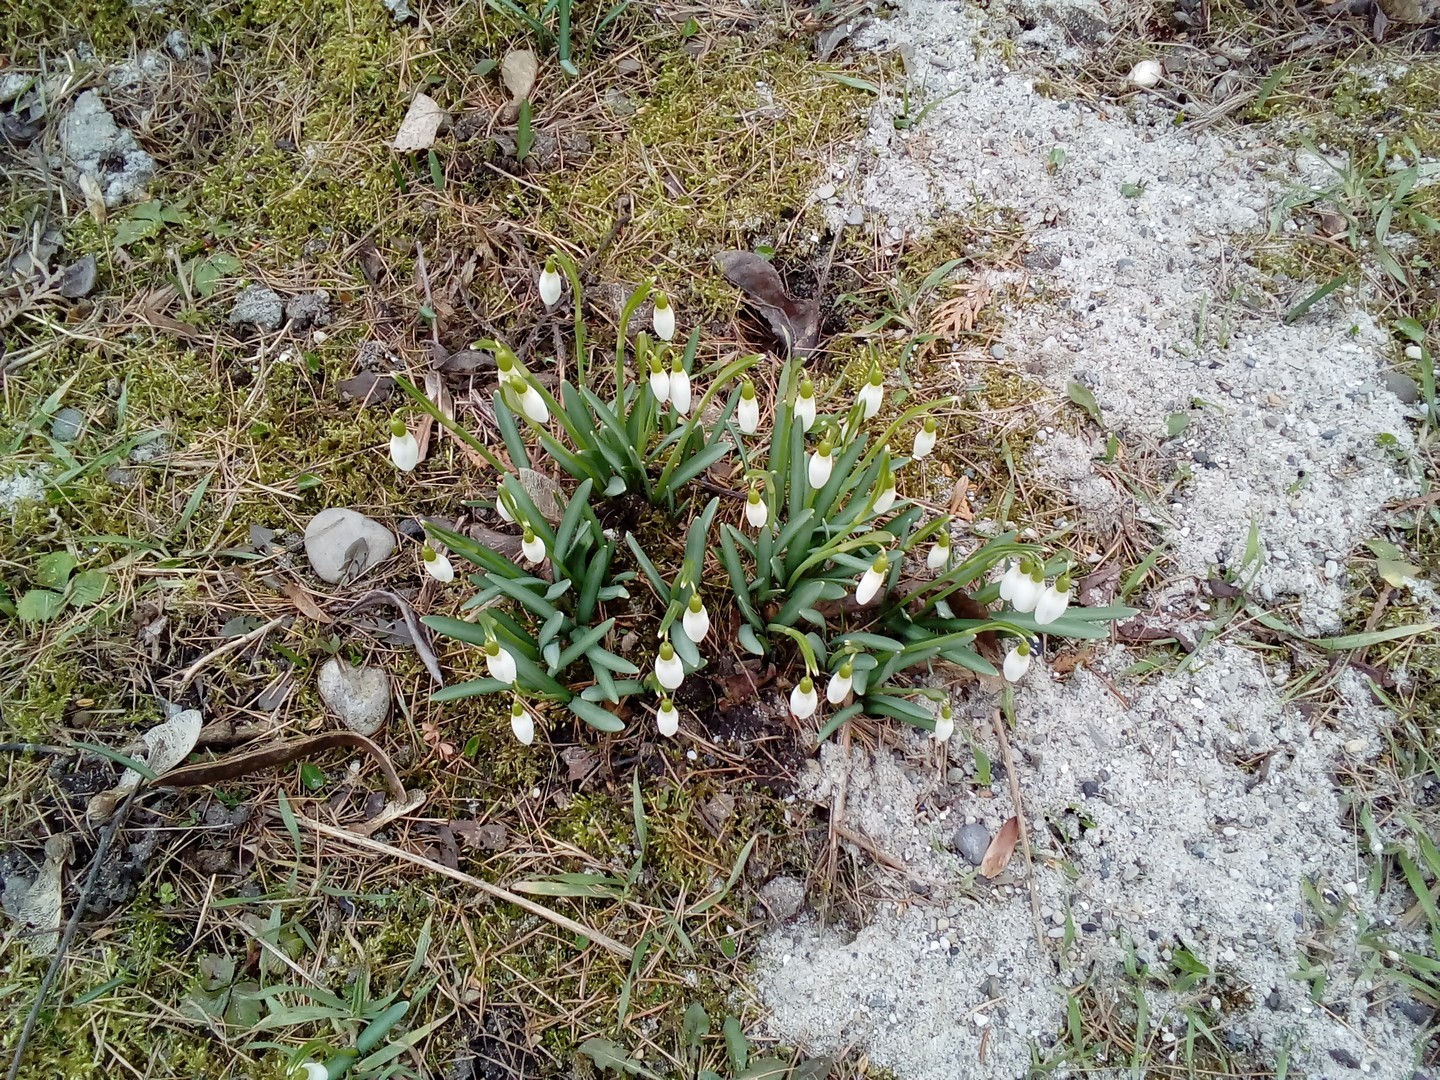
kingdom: Plantae
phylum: Tracheophyta
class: Liliopsida
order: Asparagales
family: Amaryllidaceae
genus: Galanthus
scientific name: Galanthus nivalis
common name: Snowdrop
